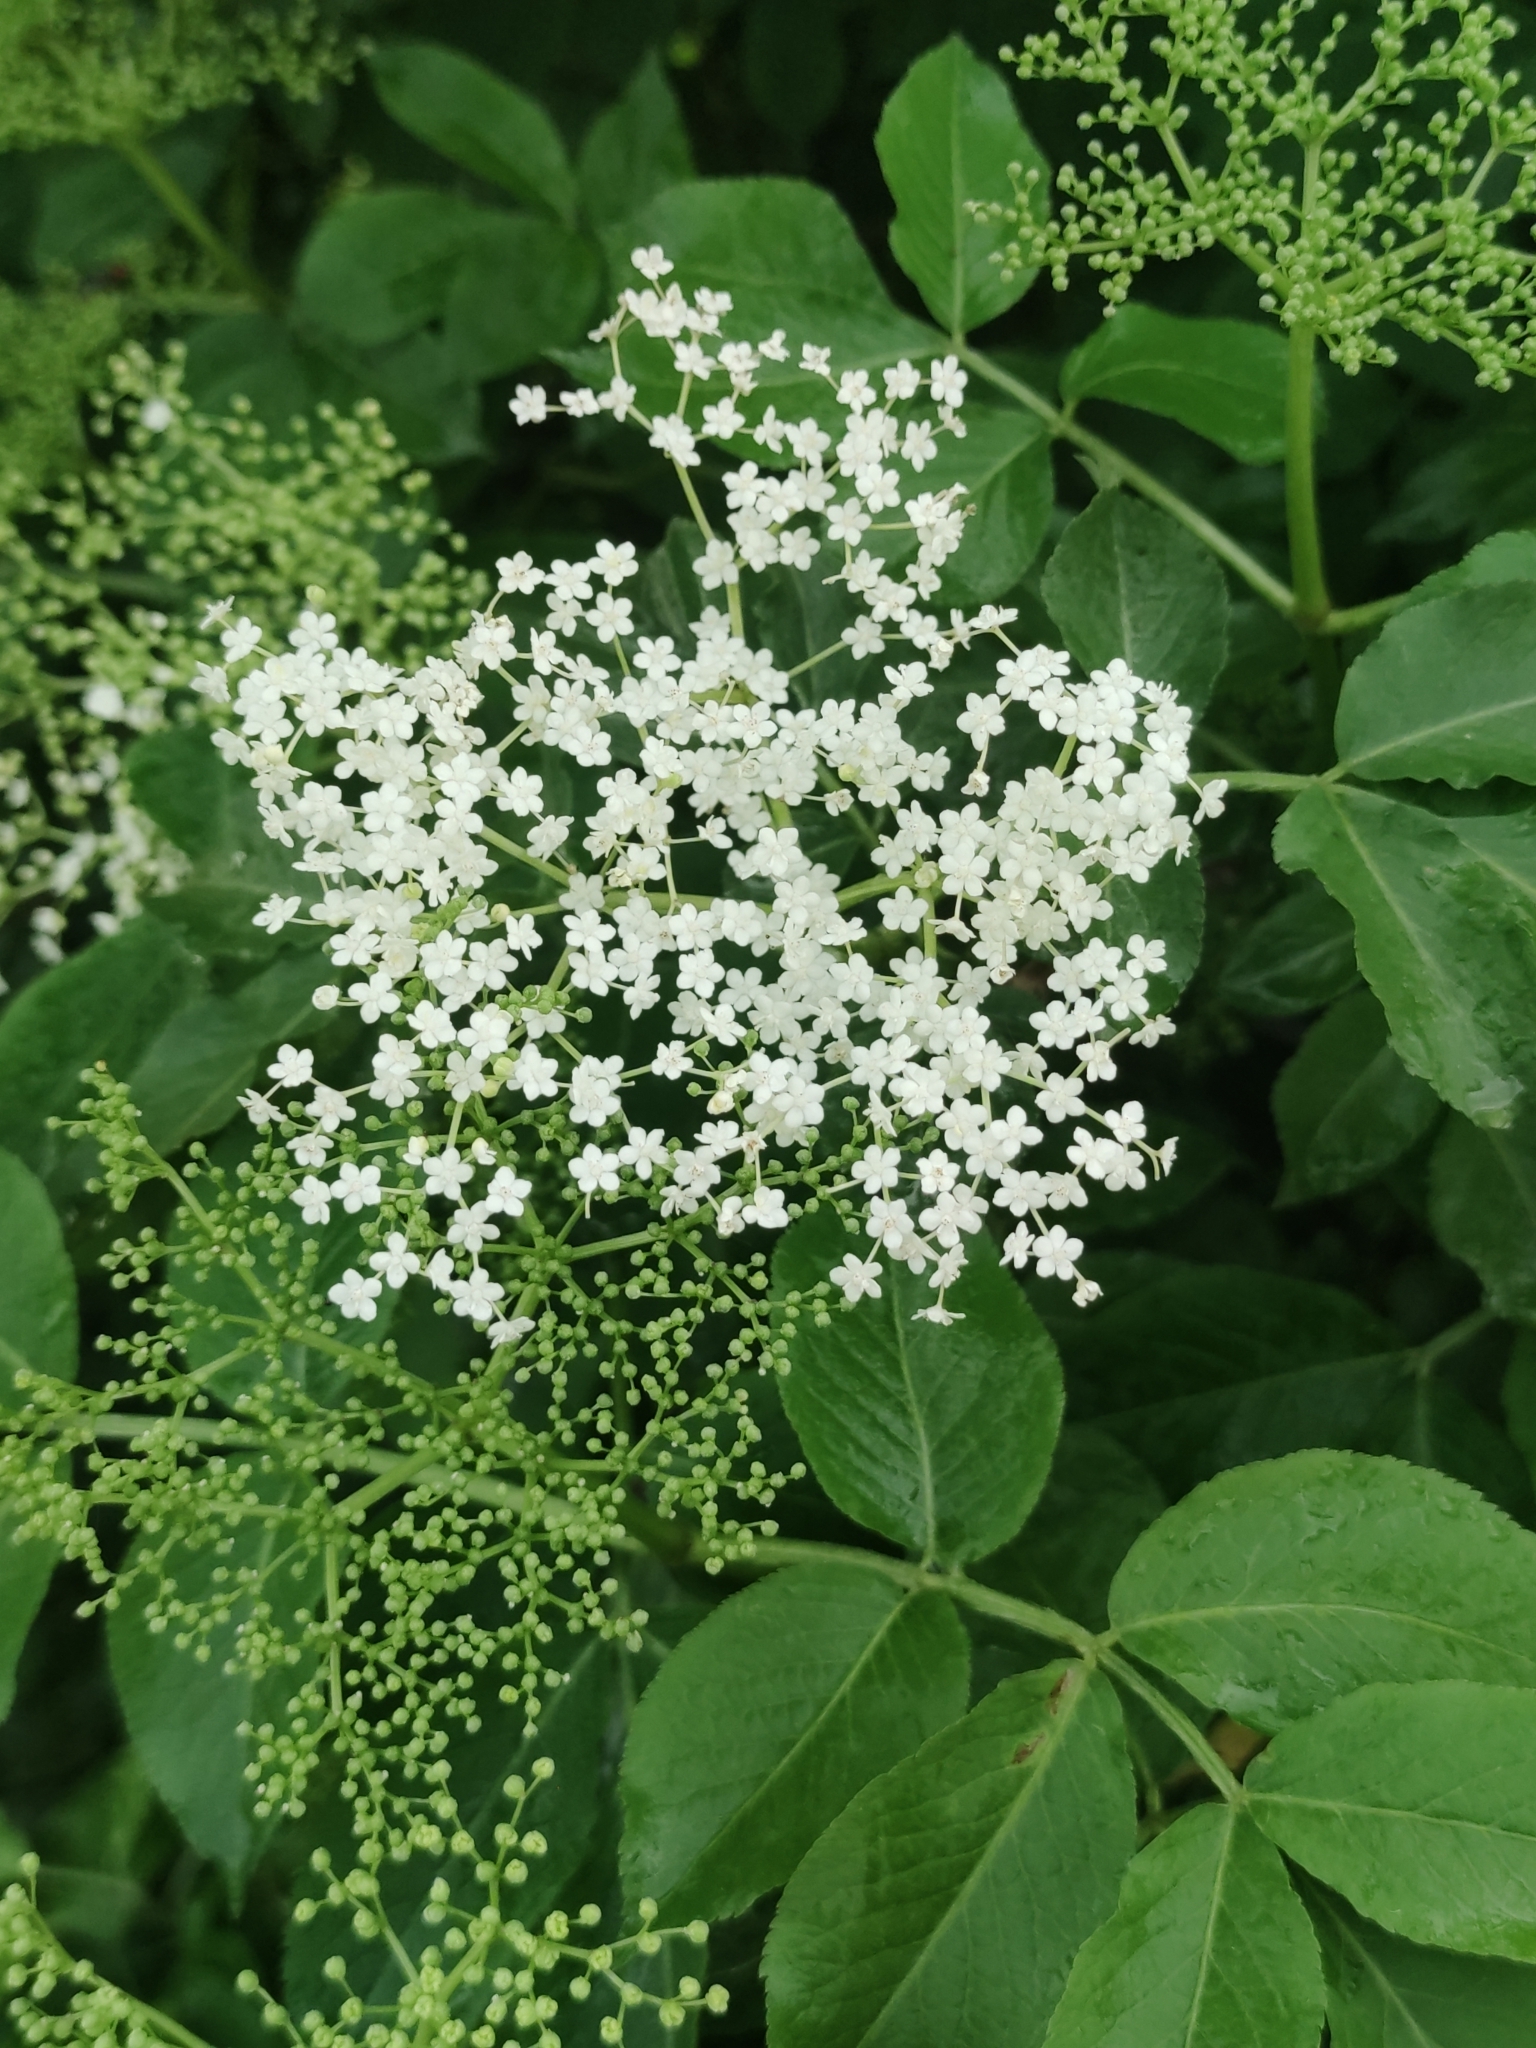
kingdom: Plantae
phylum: Tracheophyta
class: Magnoliopsida
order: Dipsacales
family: Viburnaceae
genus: Sambucus
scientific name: Sambucus nigra
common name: Elder
